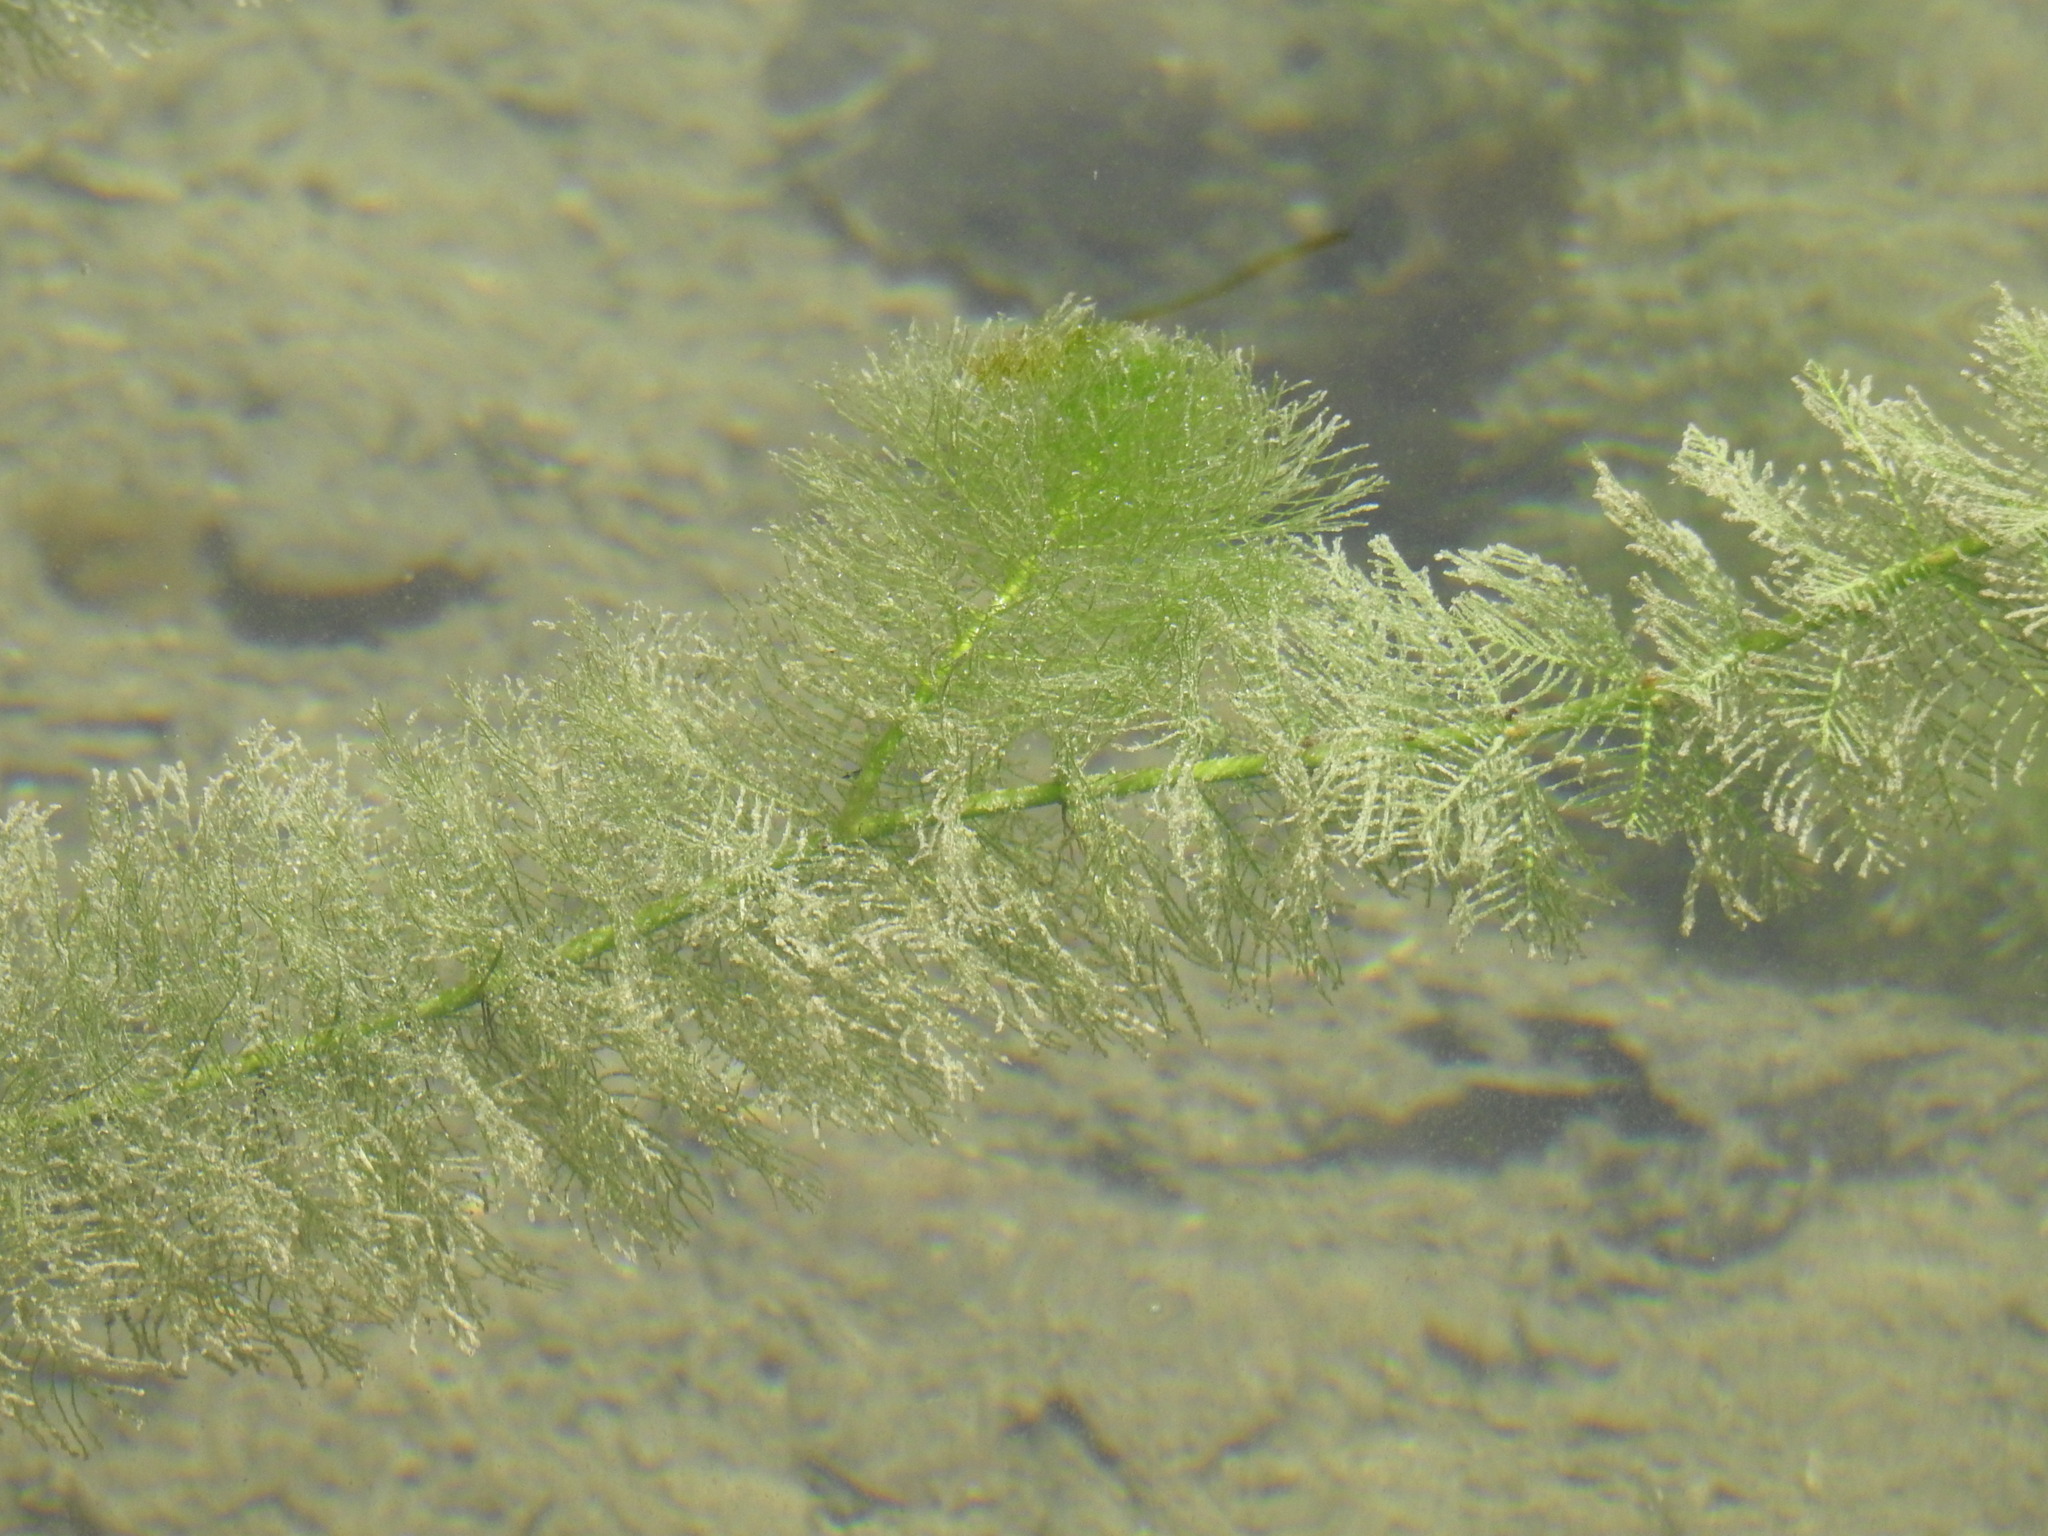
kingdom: Plantae
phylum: Tracheophyta
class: Magnoliopsida
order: Saxifragales
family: Haloragaceae
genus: Myriophyllum
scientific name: Myriophyllum verticillatum
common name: Whorled water-milfoil
